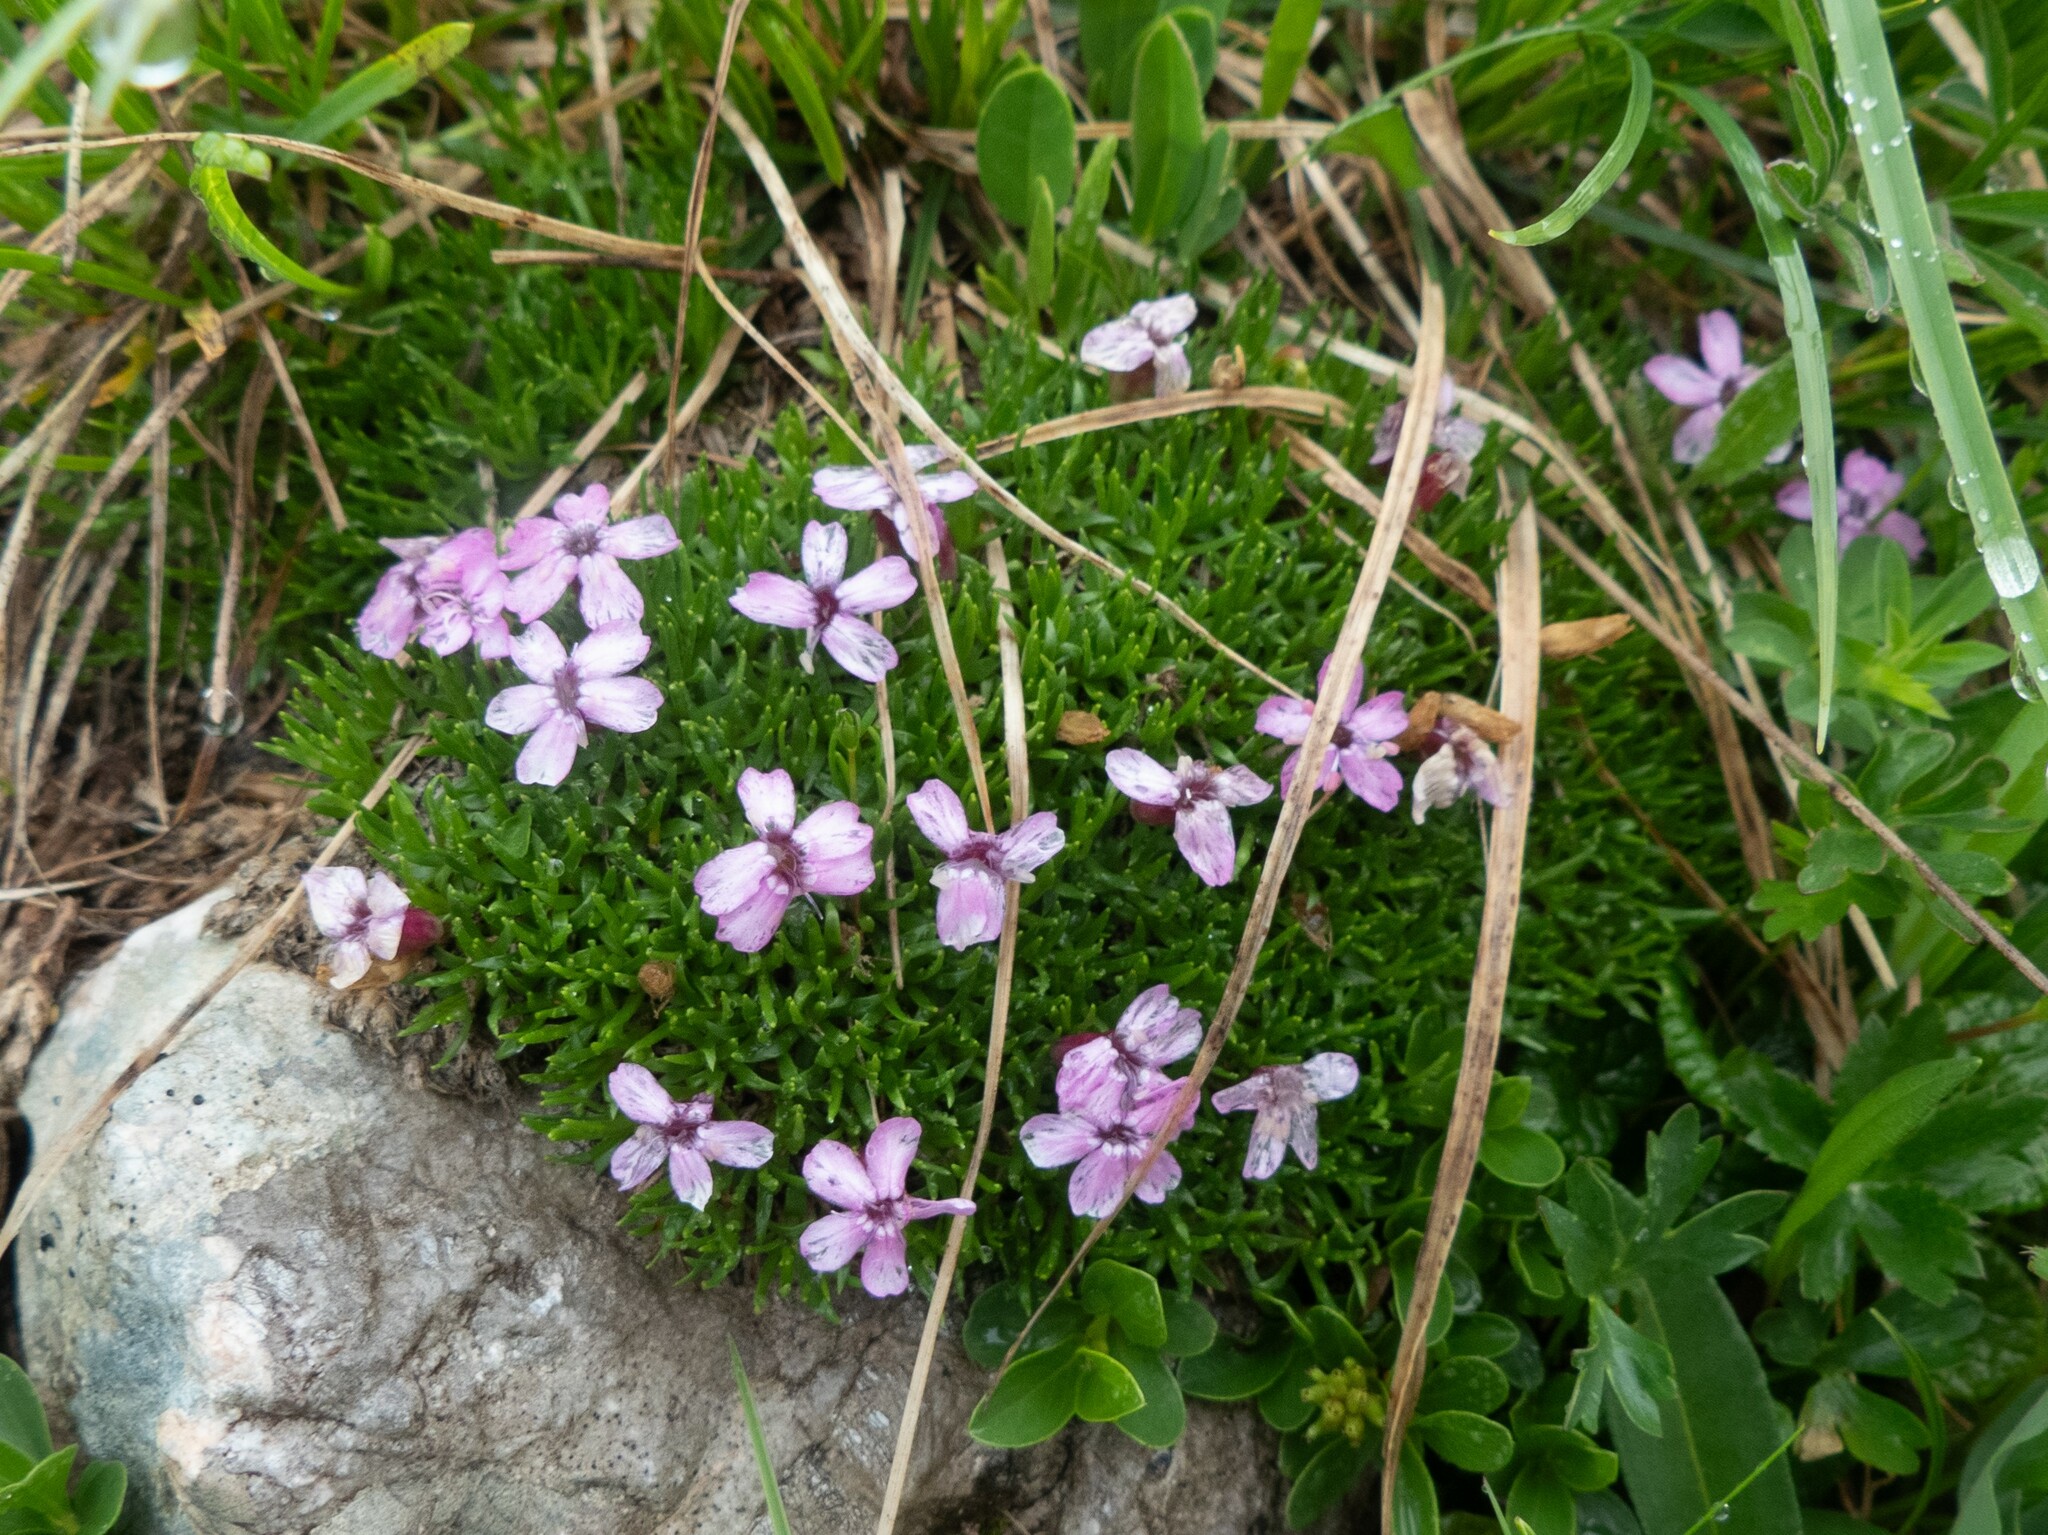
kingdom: Plantae
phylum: Tracheophyta
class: Magnoliopsida
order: Caryophyllales
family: Caryophyllaceae
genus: Silene
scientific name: Silene acaulis
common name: Moss campion
